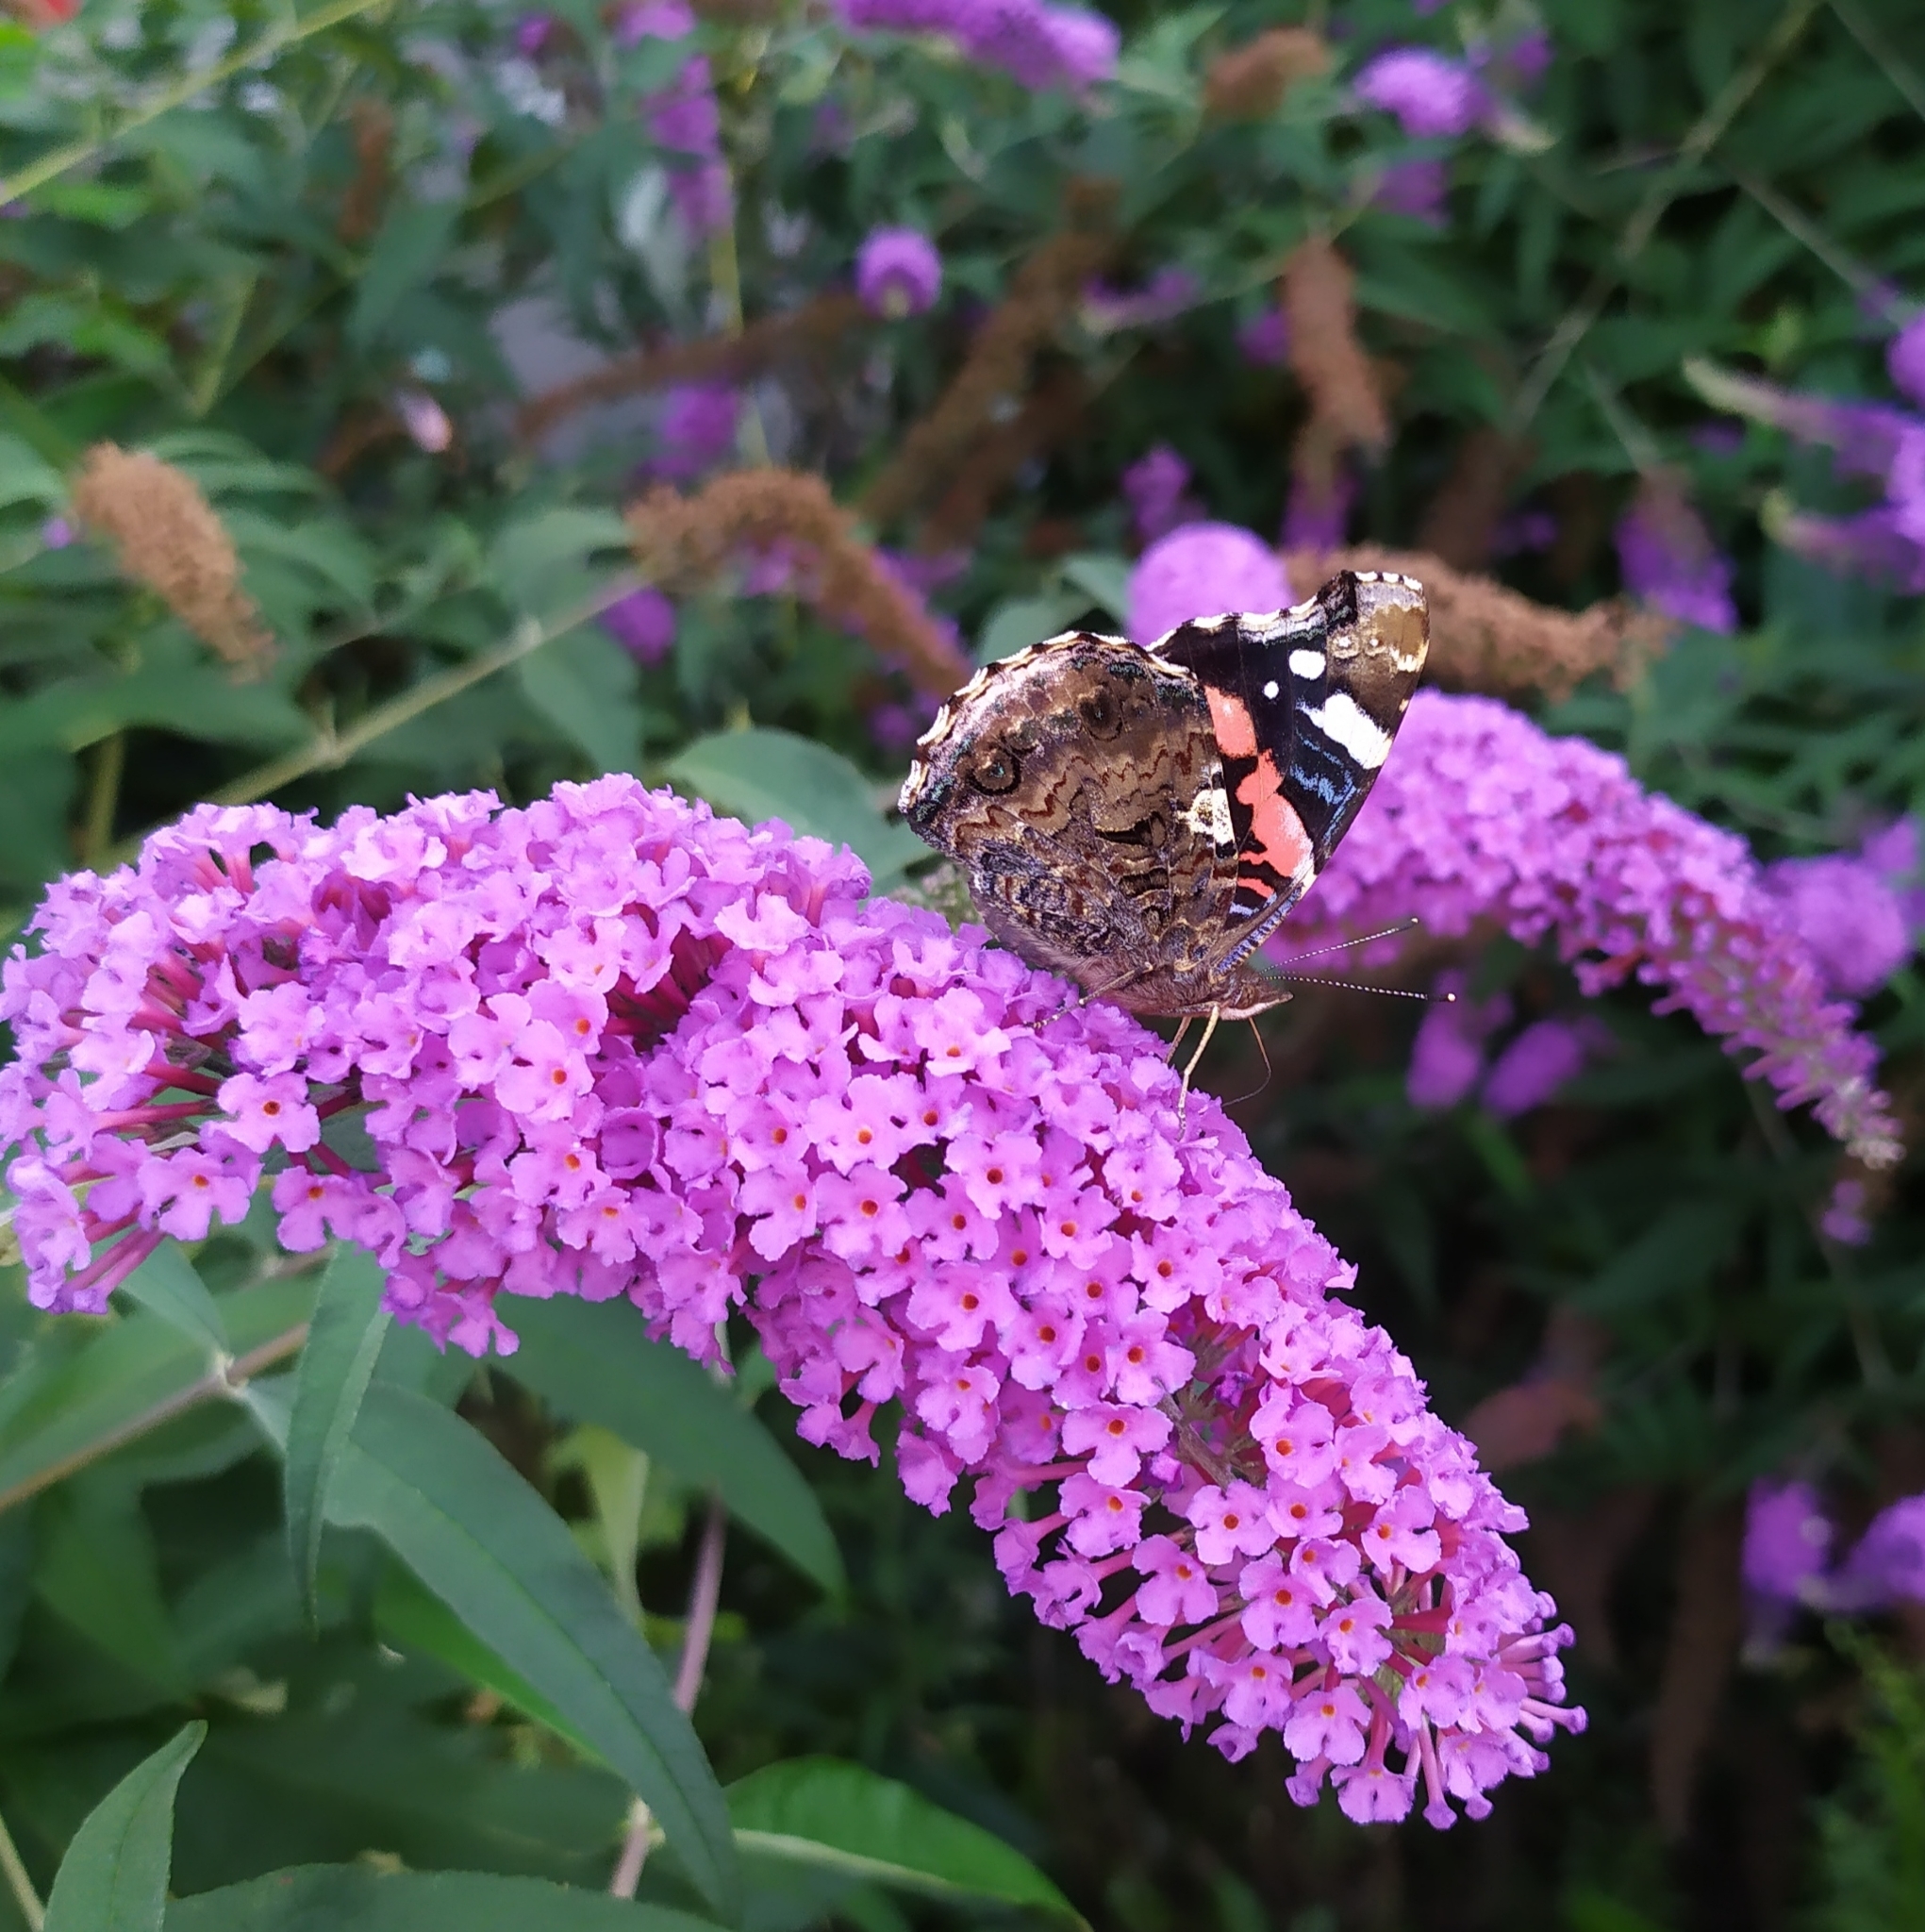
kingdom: Animalia
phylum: Arthropoda
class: Insecta
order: Lepidoptera
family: Nymphalidae
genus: Vanessa
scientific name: Vanessa atalanta
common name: Red admiral
